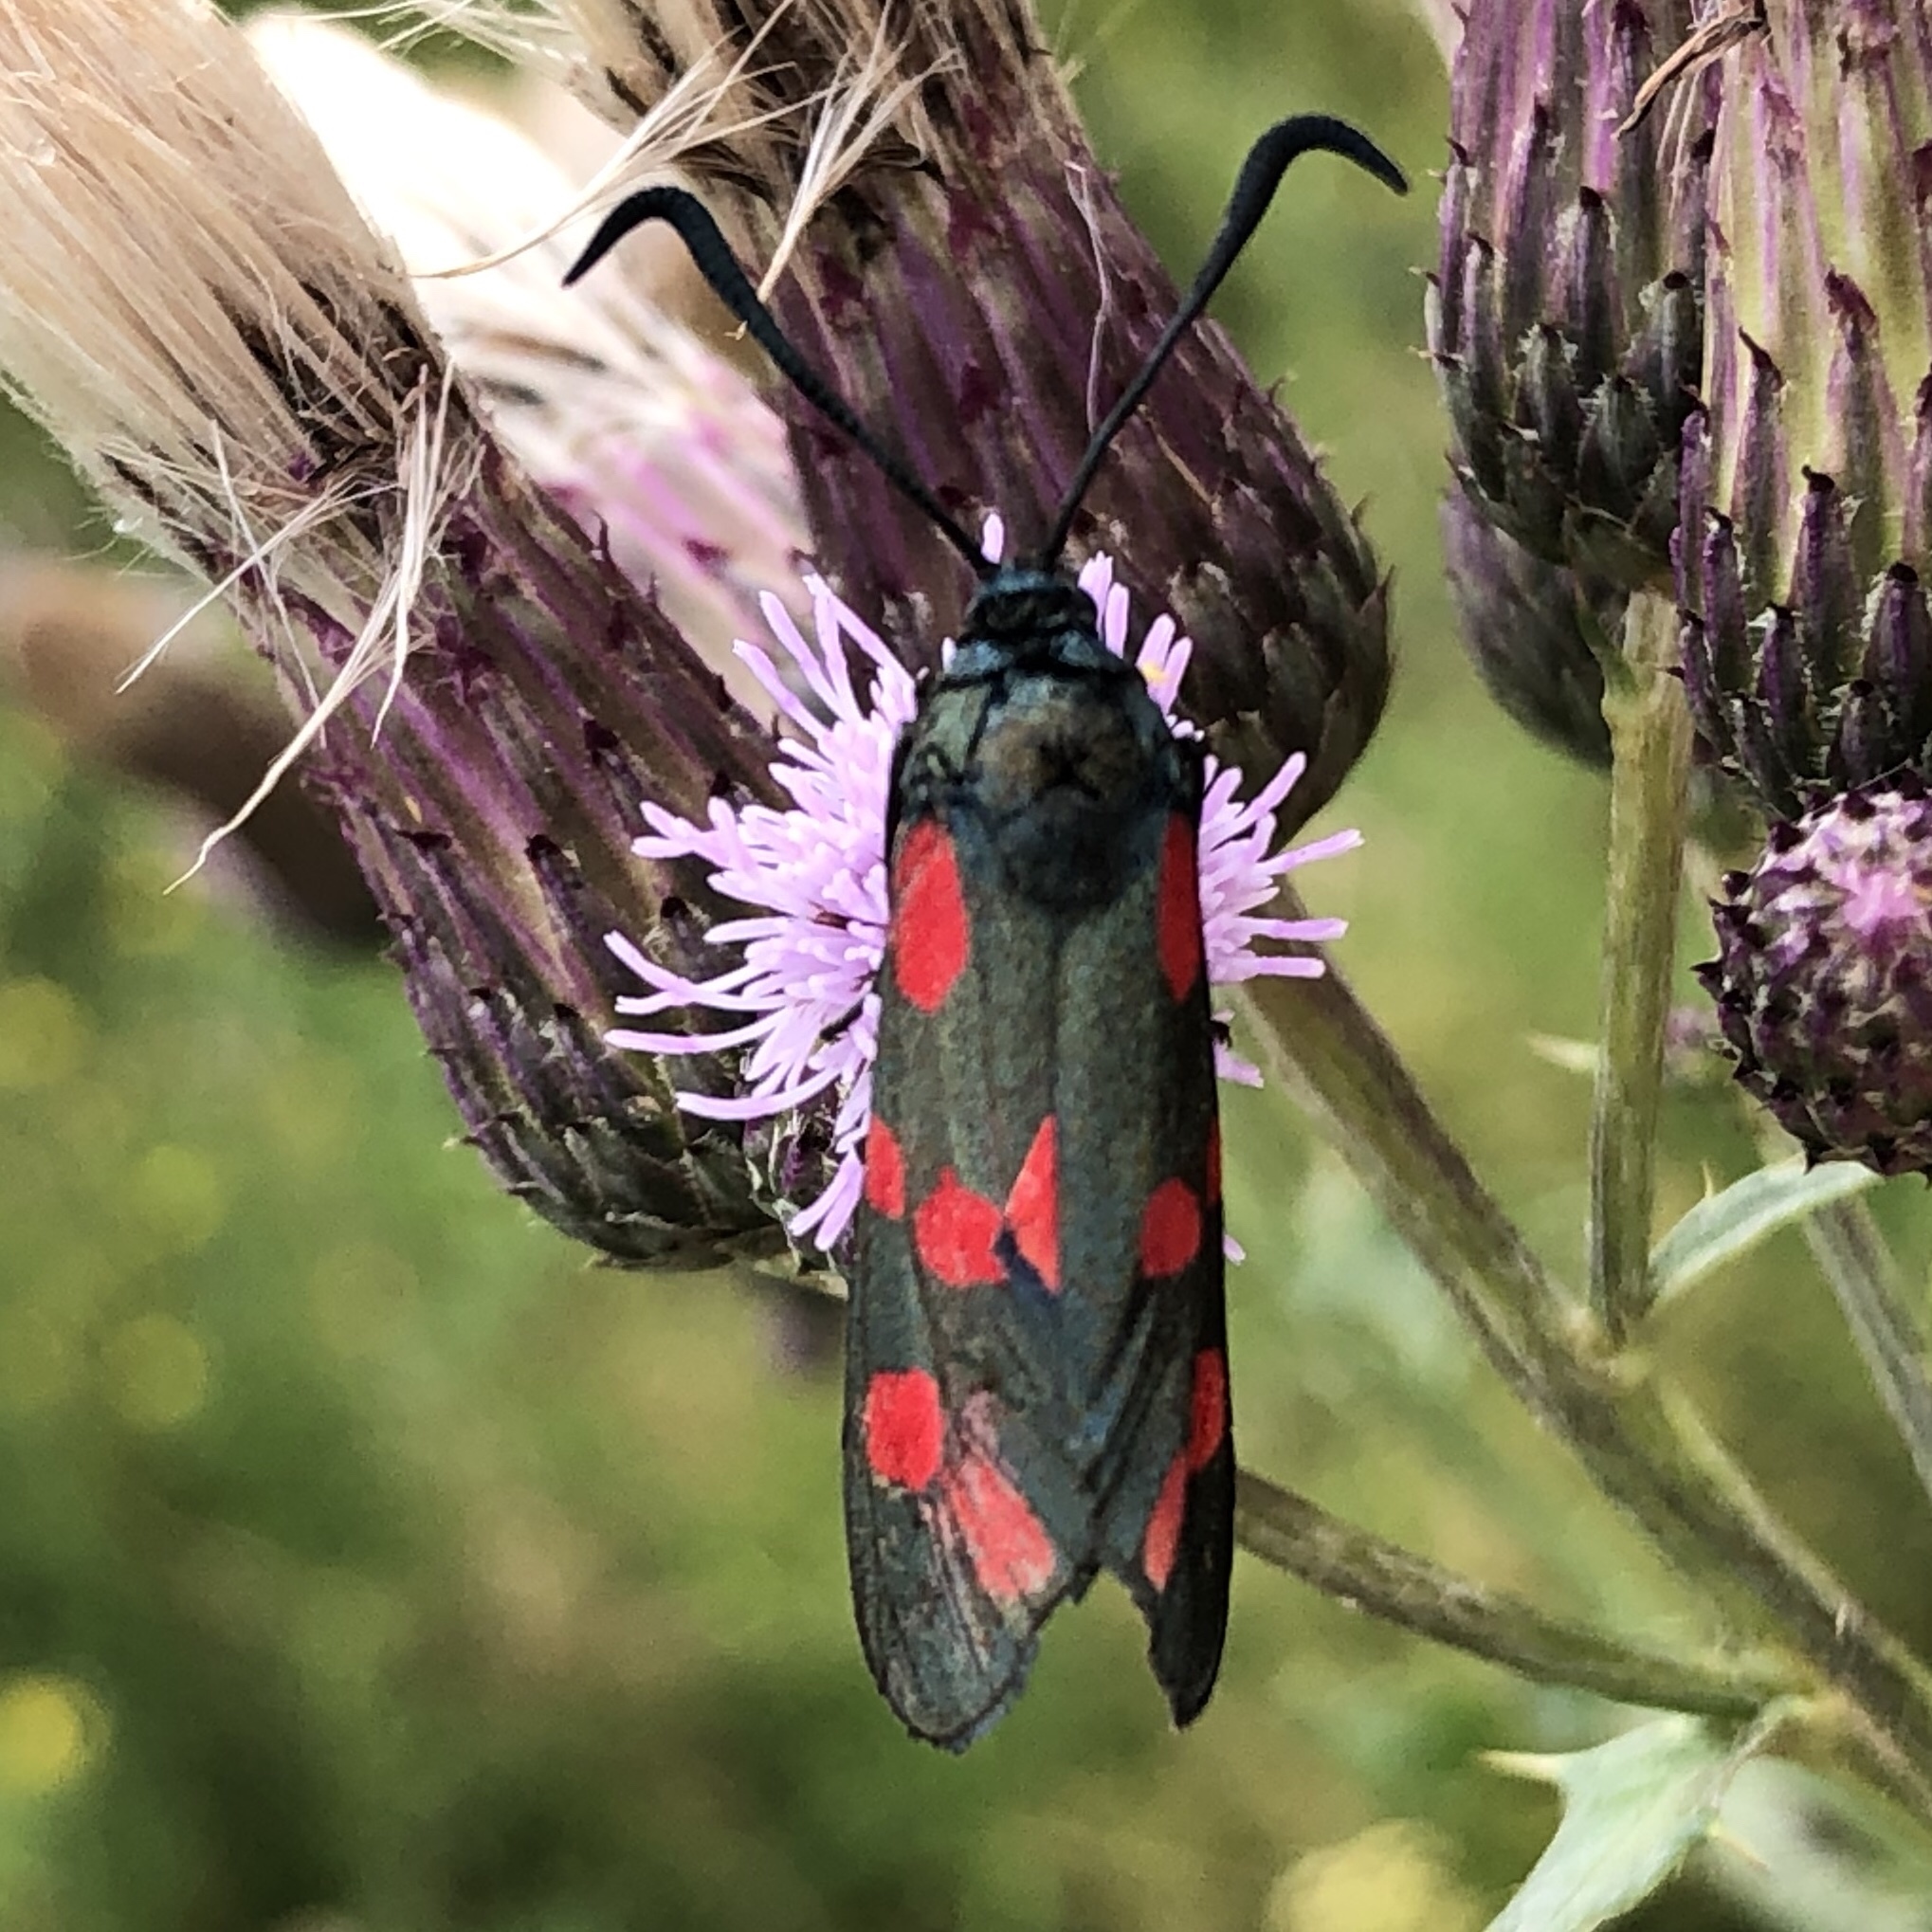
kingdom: Animalia
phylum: Arthropoda
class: Insecta
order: Lepidoptera
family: Zygaenidae
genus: Zygaena
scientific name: Zygaena filipendulae
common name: Six-spot burnet
